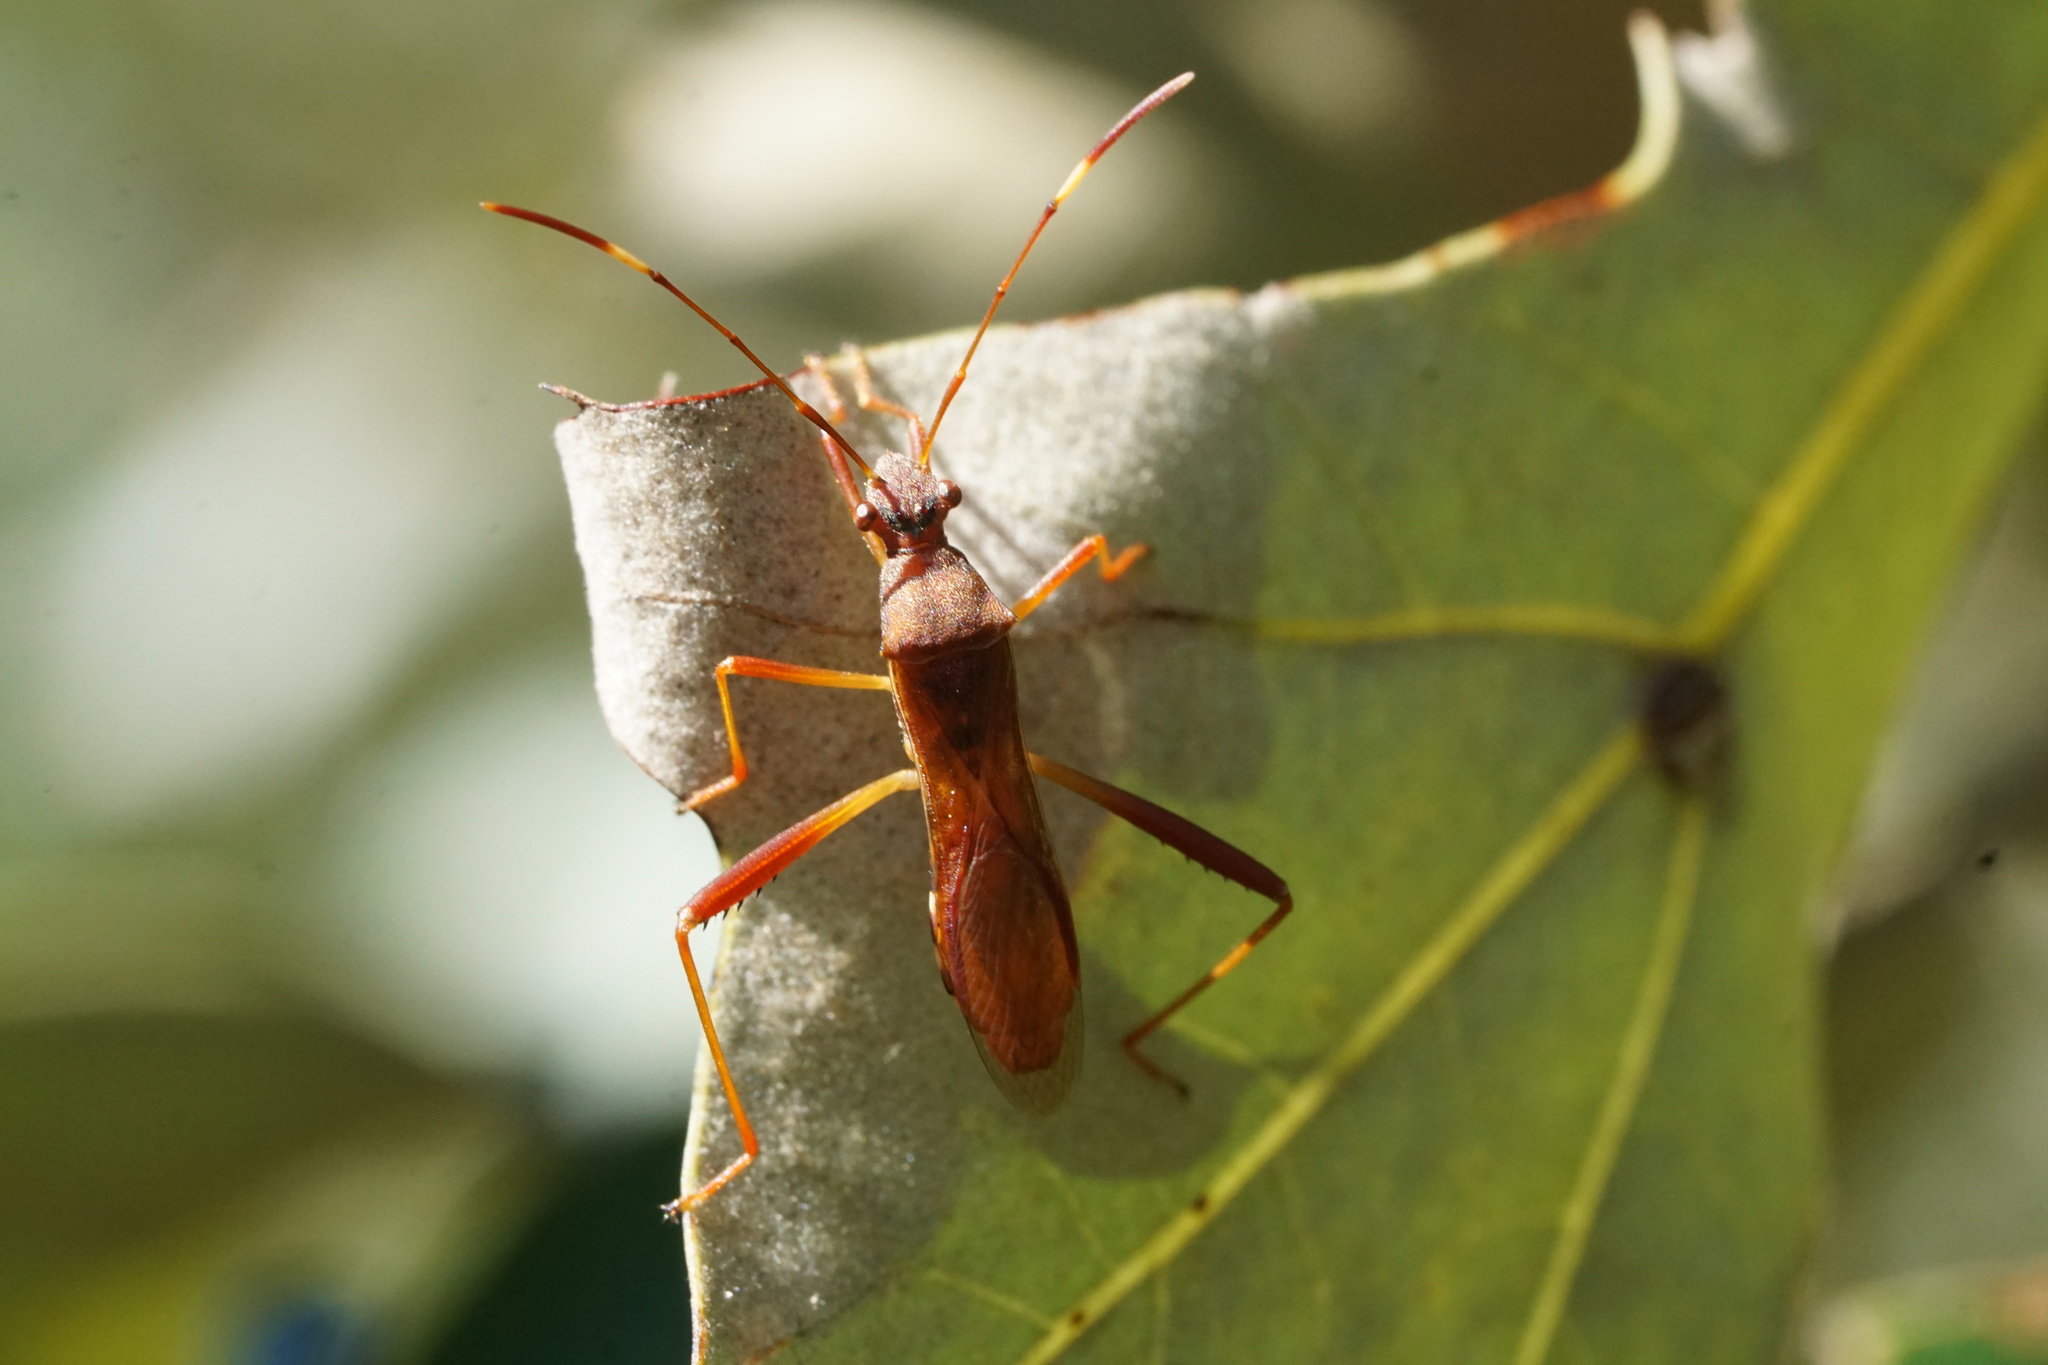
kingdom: Animalia
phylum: Arthropoda
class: Insecta
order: Hemiptera
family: Alydidae
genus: Megalotomus
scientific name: Megalotomus quinquespinosus
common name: Lupine bug
